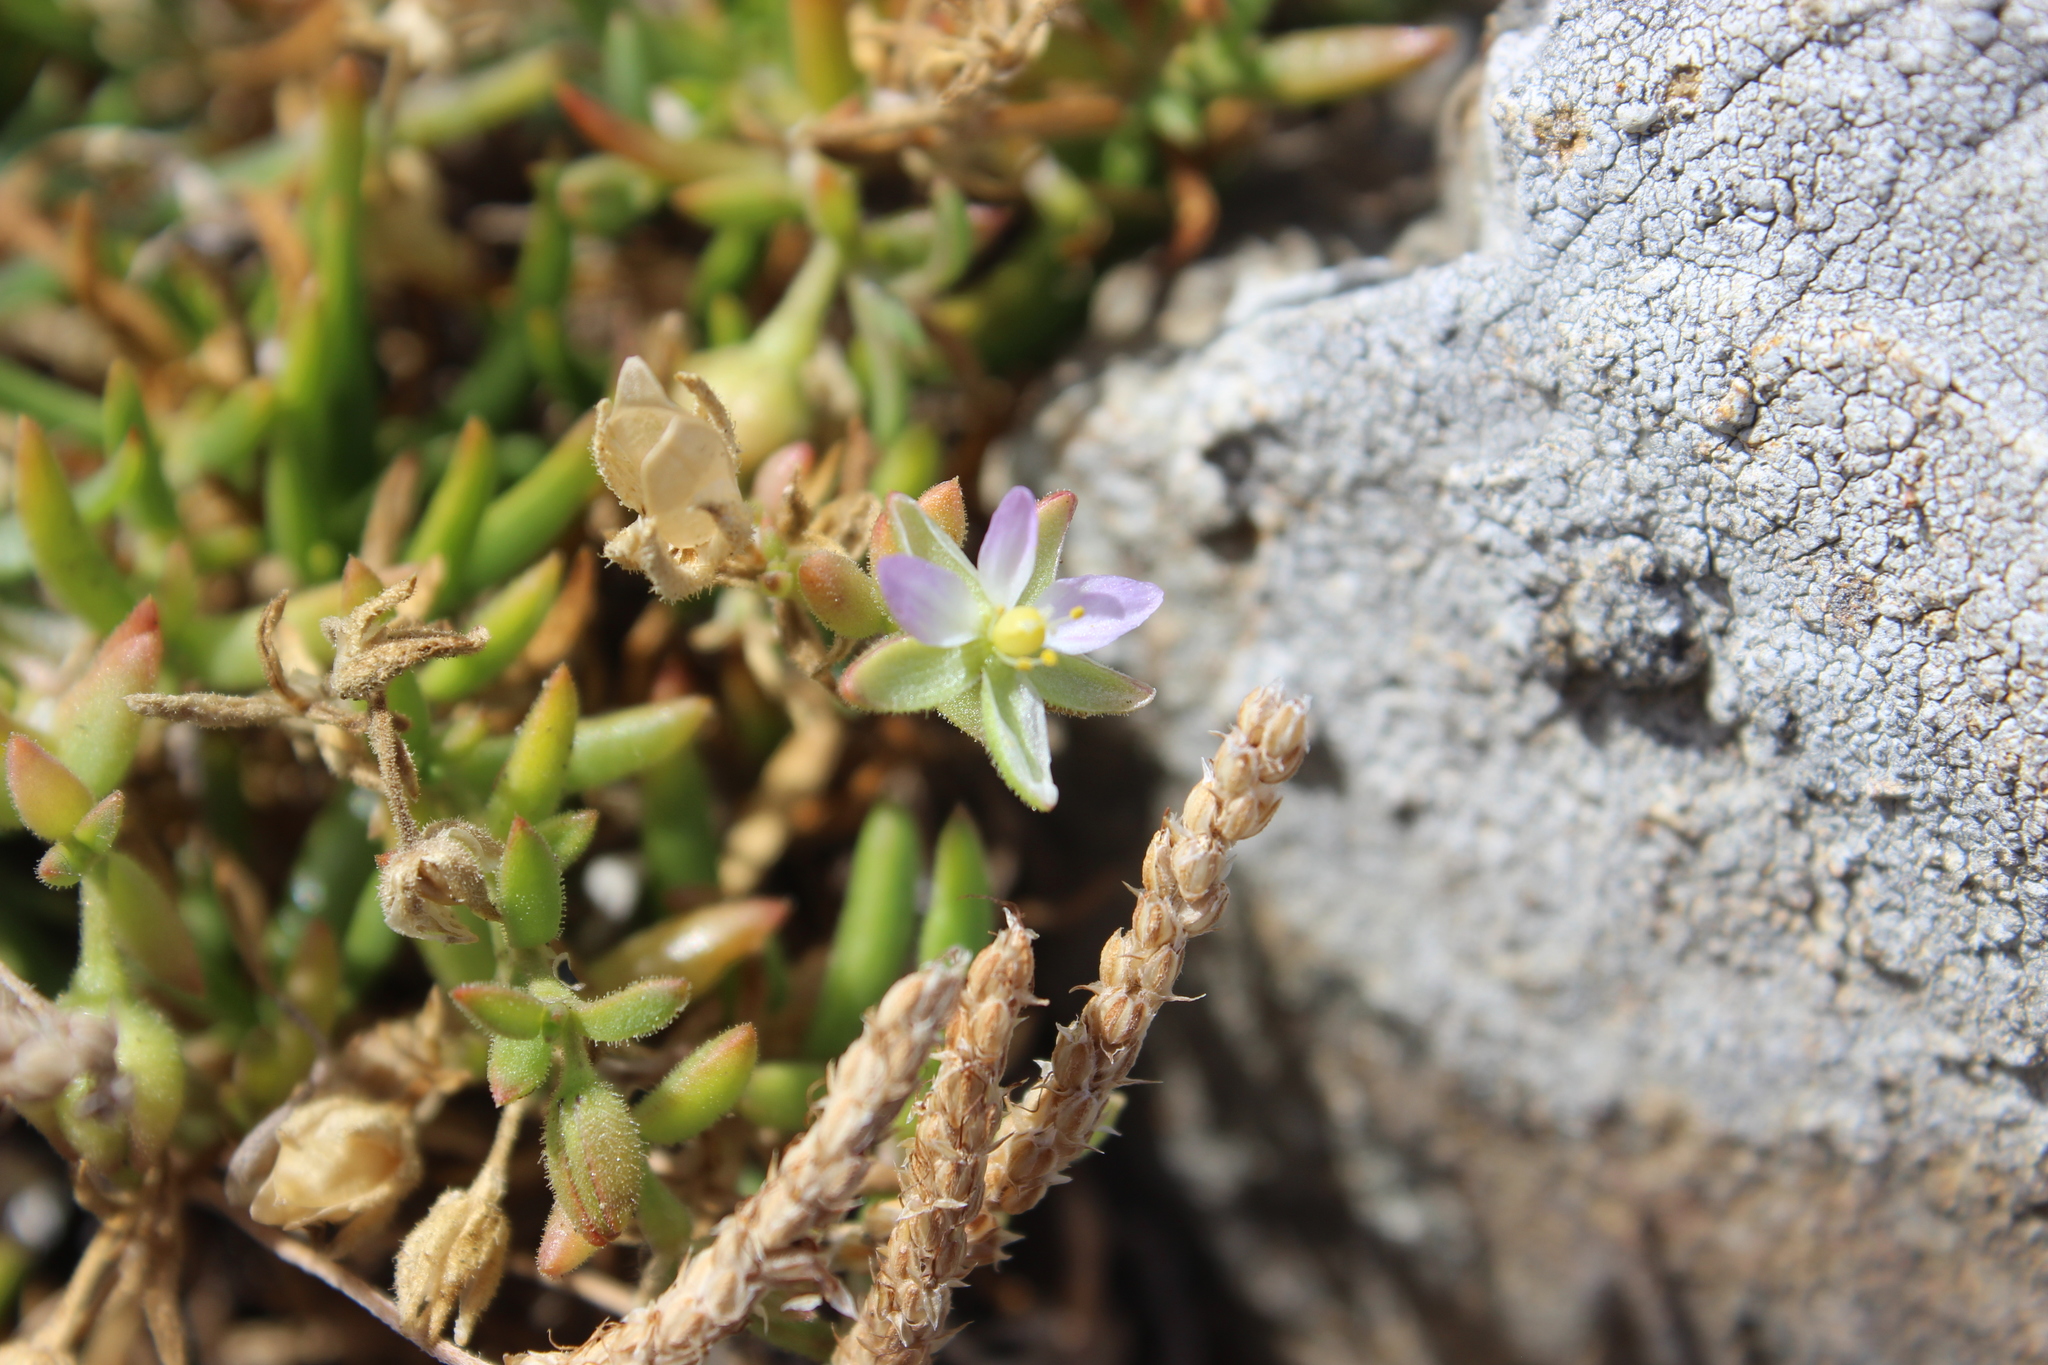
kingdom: Plantae
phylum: Tracheophyta
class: Magnoliopsida
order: Caryophyllales
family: Caryophyllaceae
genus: Spergularia
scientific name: Spergularia marina
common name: Lesser sea-spurrey
